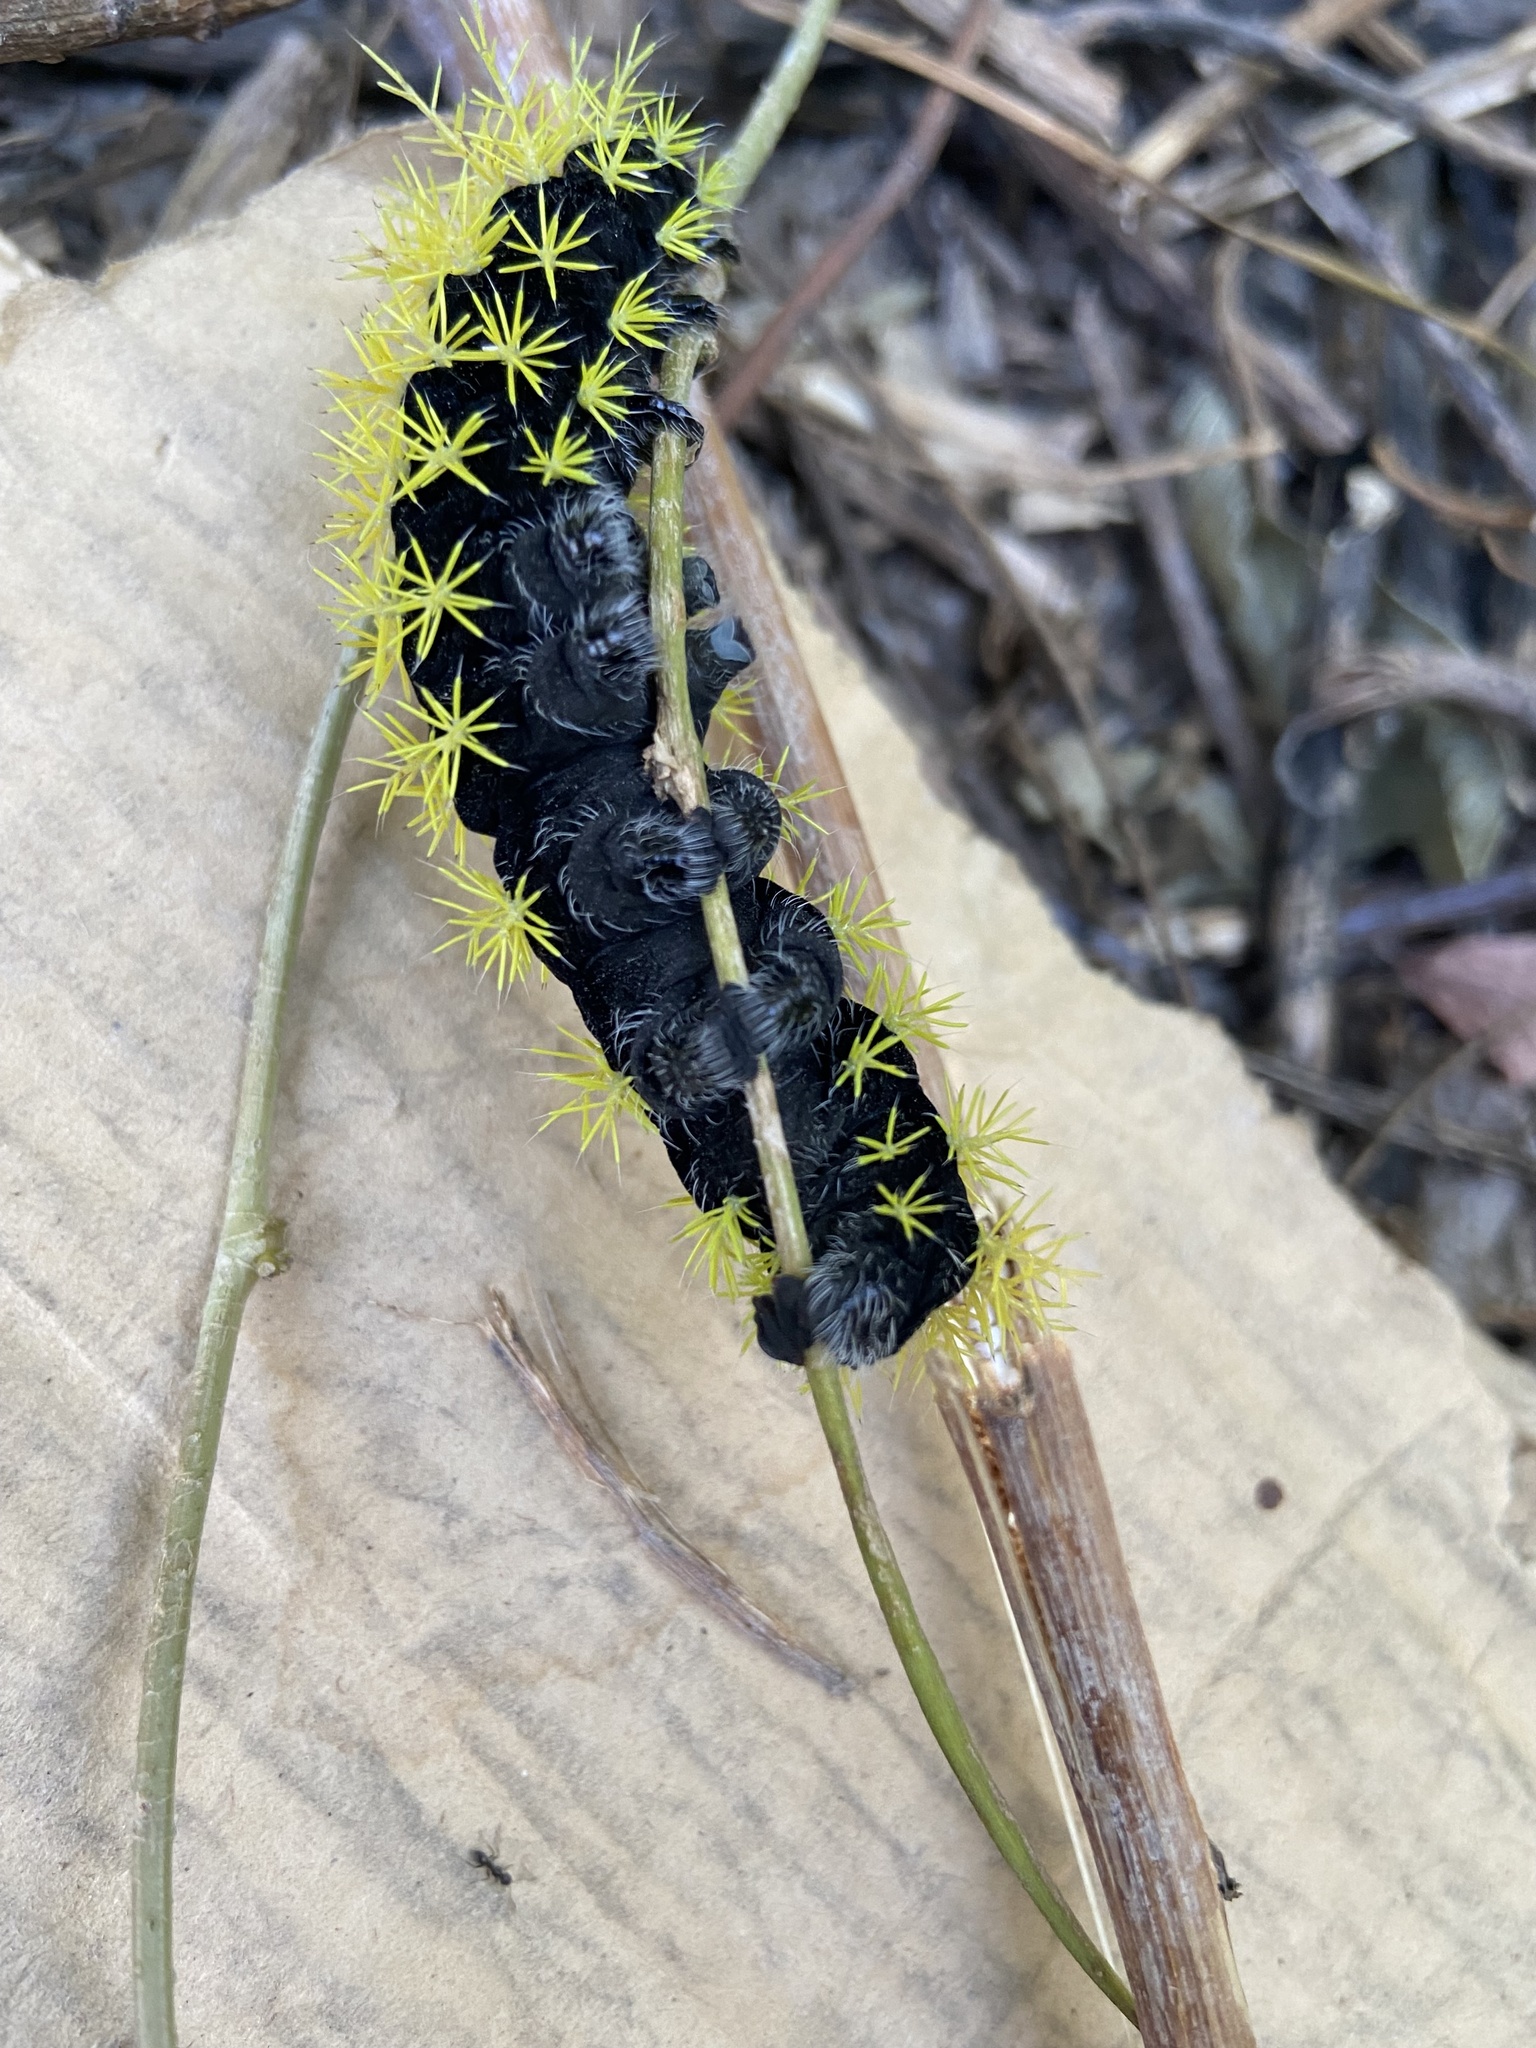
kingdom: Animalia
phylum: Arthropoda
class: Insecta
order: Lepidoptera
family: Saturniidae
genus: Leucanella
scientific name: Leucanella viridescens
